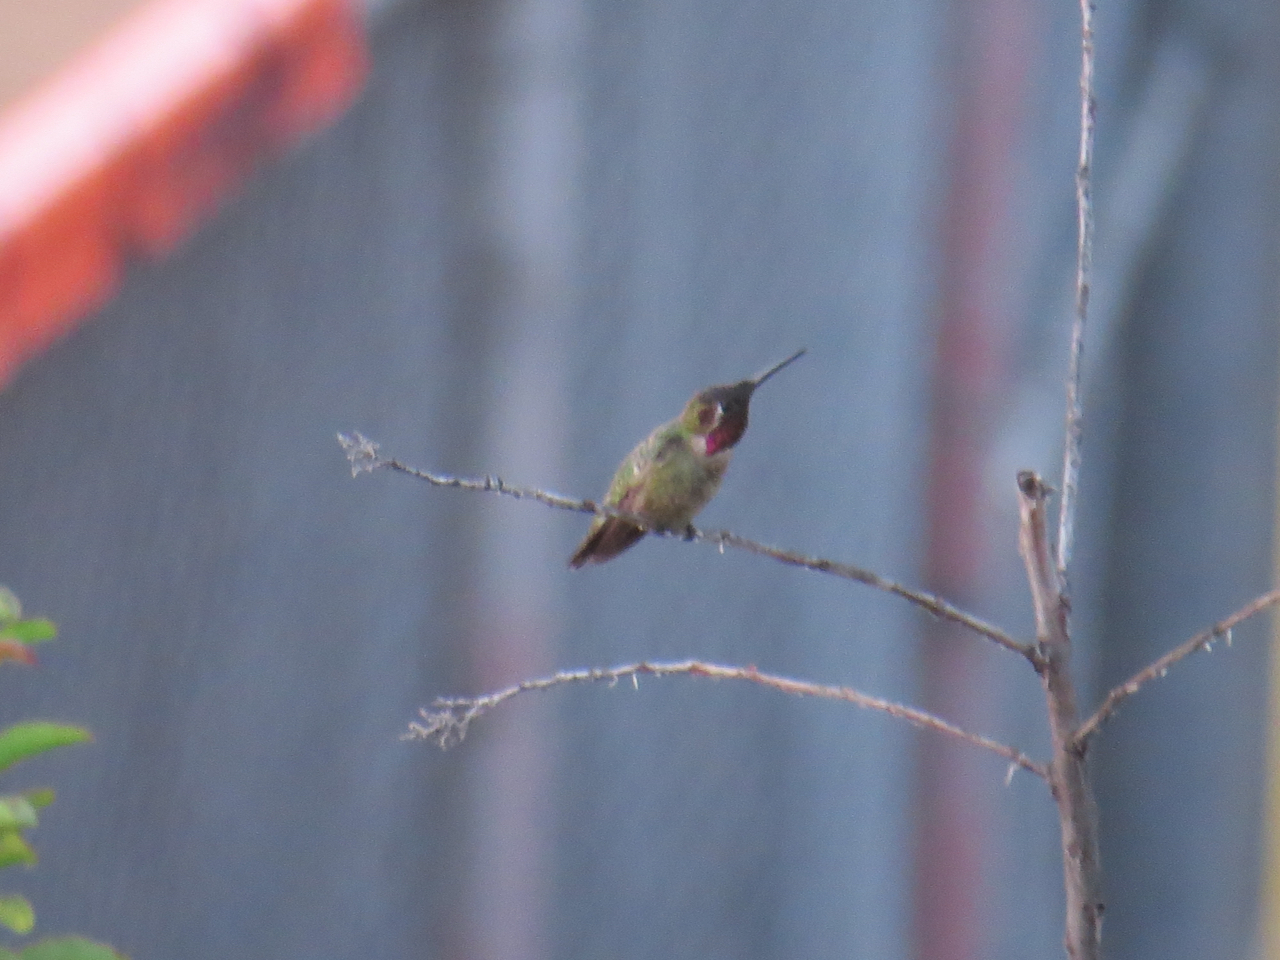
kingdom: Animalia
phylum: Chordata
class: Aves
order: Apodiformes
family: Trochilidae
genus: Calypte
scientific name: Calypte anna
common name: Anna's hummingbird
